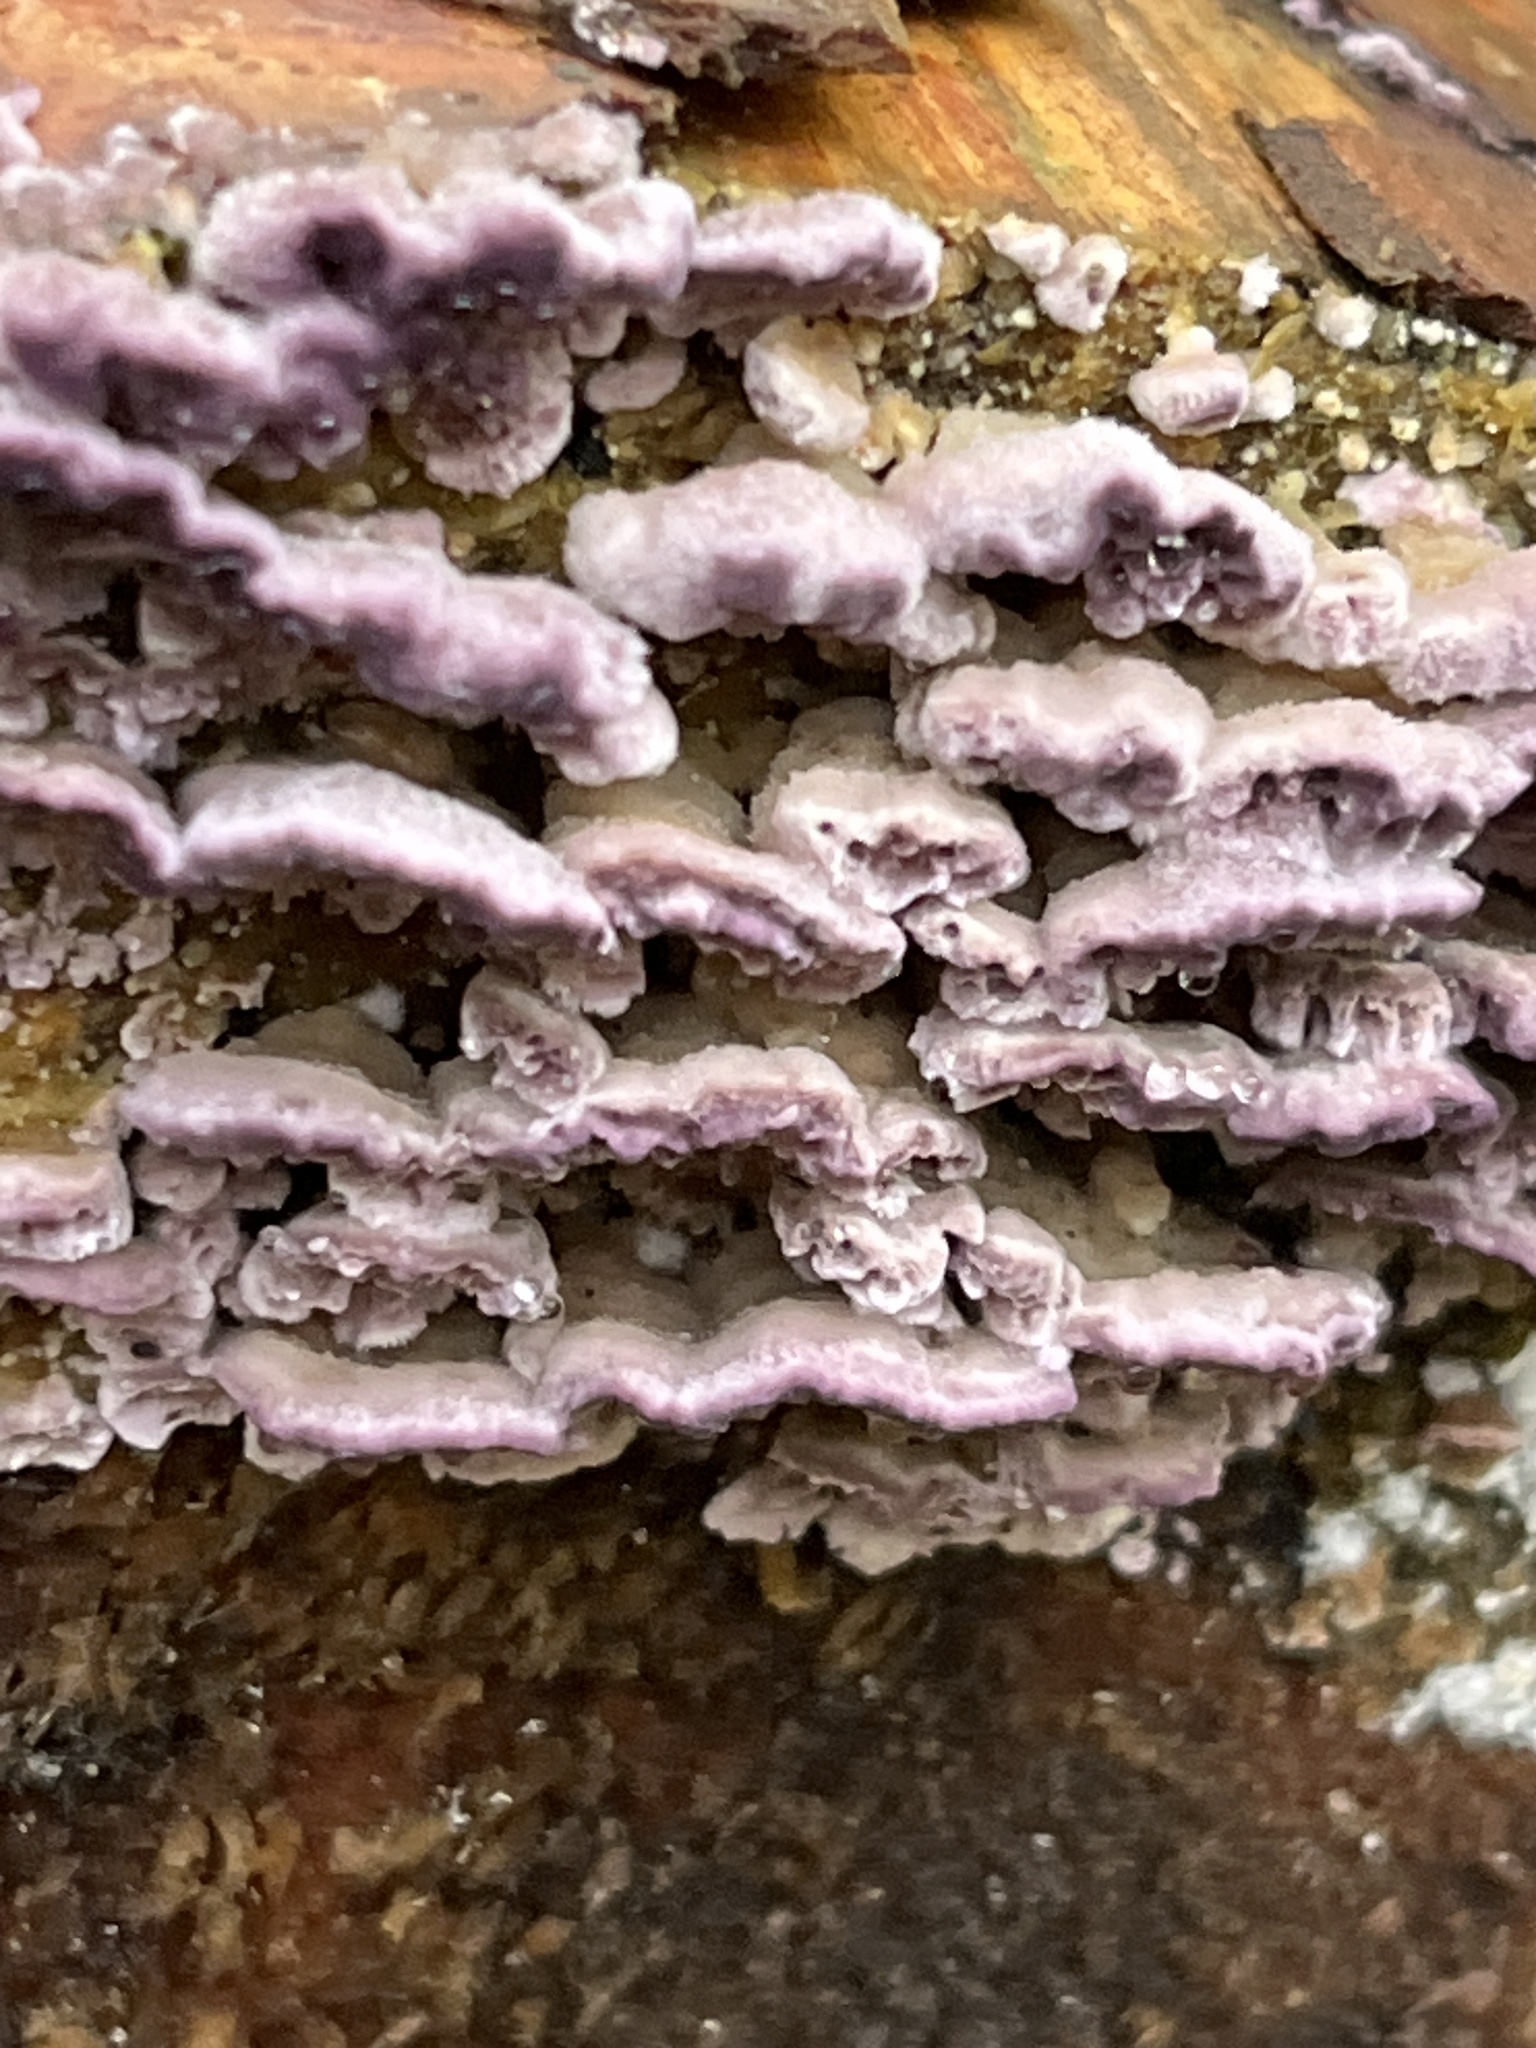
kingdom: Fungi
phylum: Basidiomycota
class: Agaricomycetes
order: Agaricales
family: Cyphellaceae
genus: Chondrostereum
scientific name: Chondrostereum purpureum
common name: Silver leaf disease
